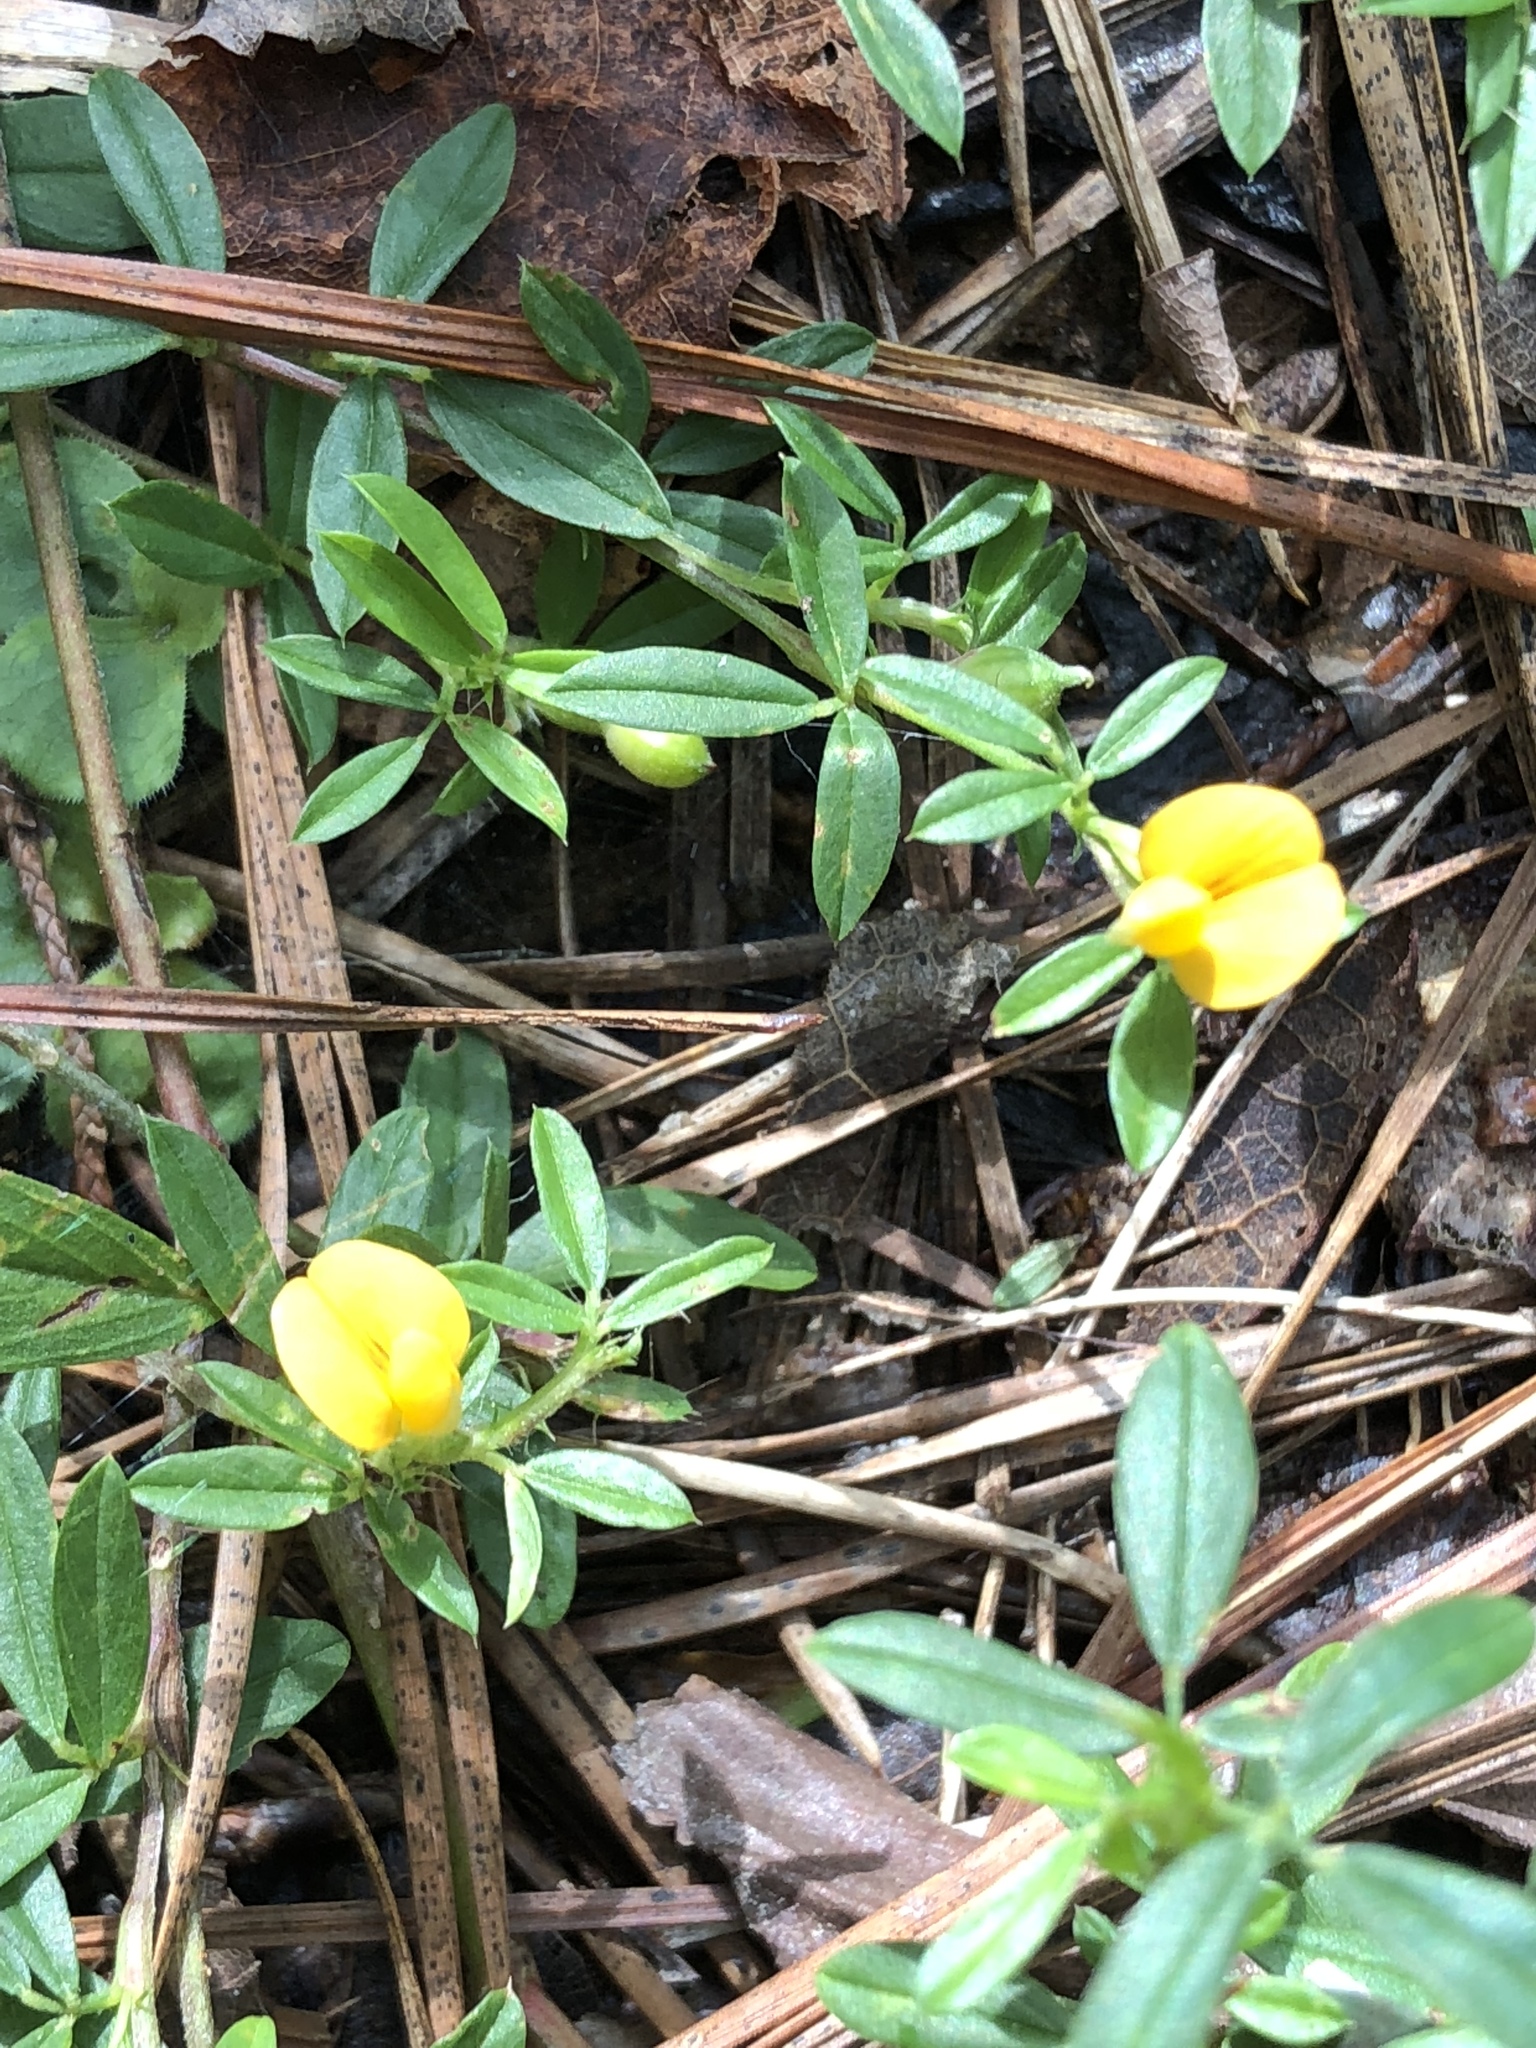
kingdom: Plantae
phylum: Tracheophyta
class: Magnoliopsida
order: Fabales
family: Fabaceae
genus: Stylosanthes
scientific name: Stylosanthes biflora
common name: Two-flower pencil-flower
